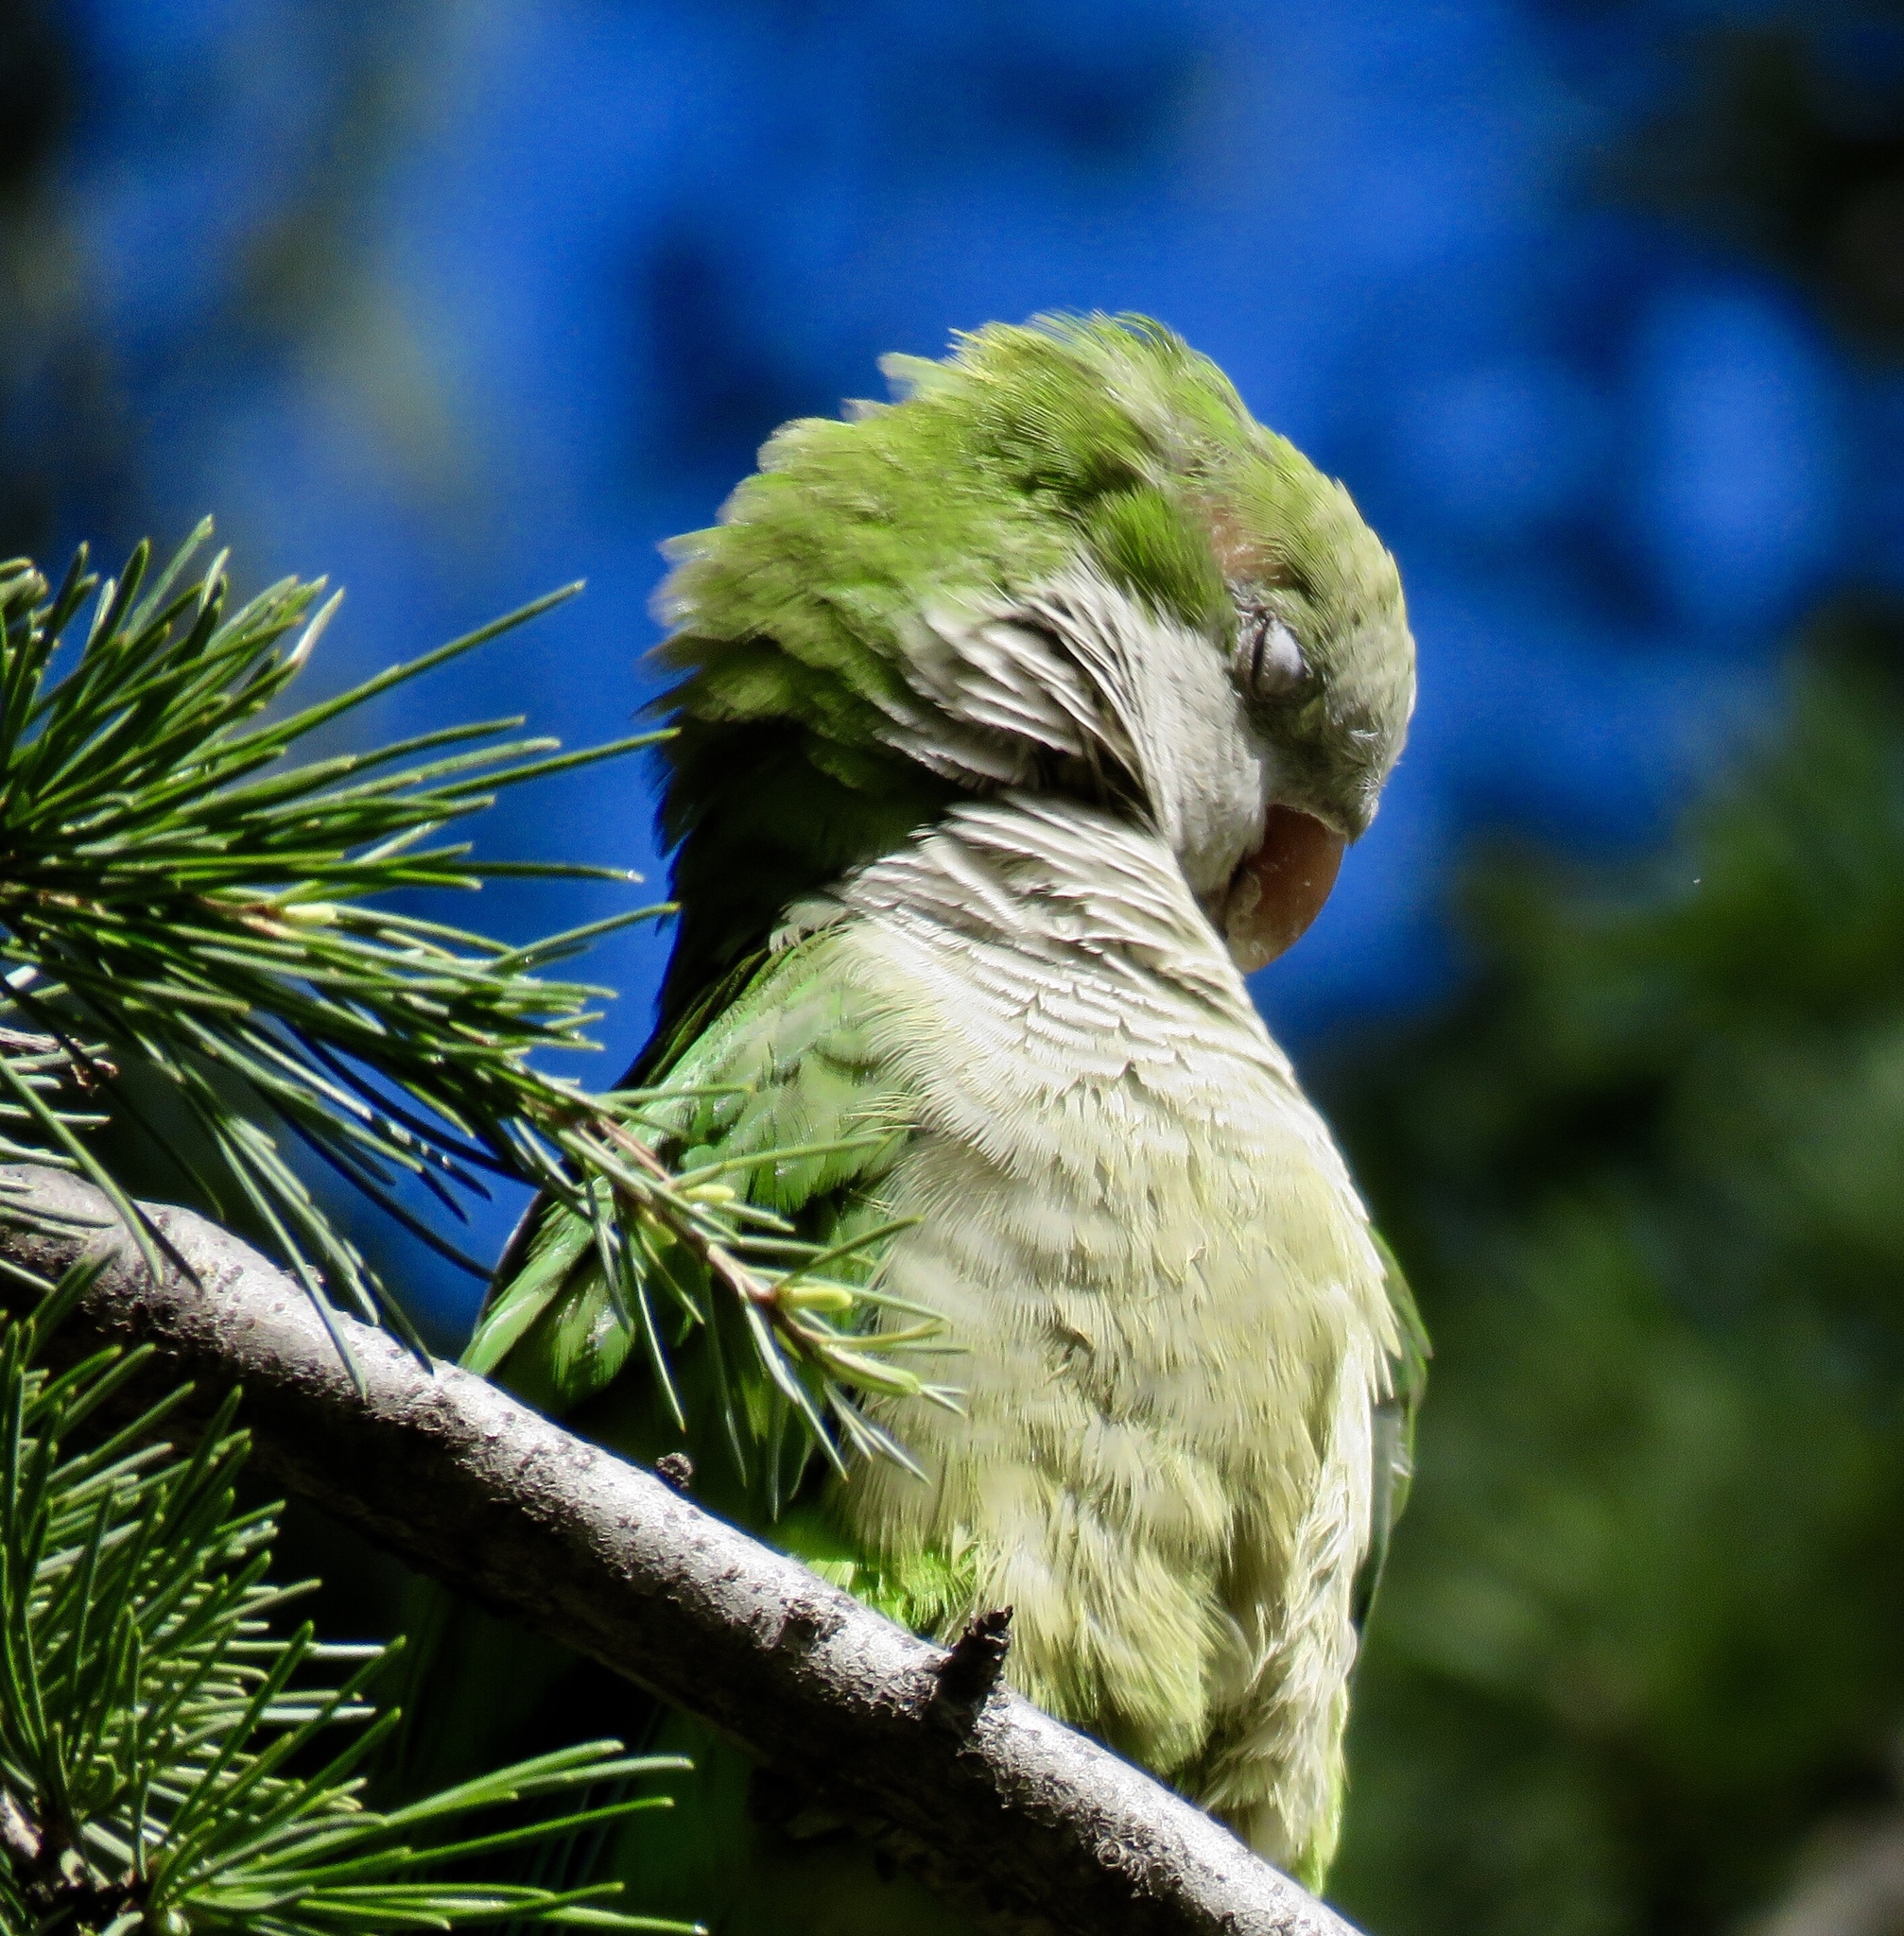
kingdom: Animalia
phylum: Chordata
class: Aves
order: Psittaciformes
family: Psittacidae
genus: Myiopsitta
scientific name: Myiopsitta monachus
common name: Monk parakeet
